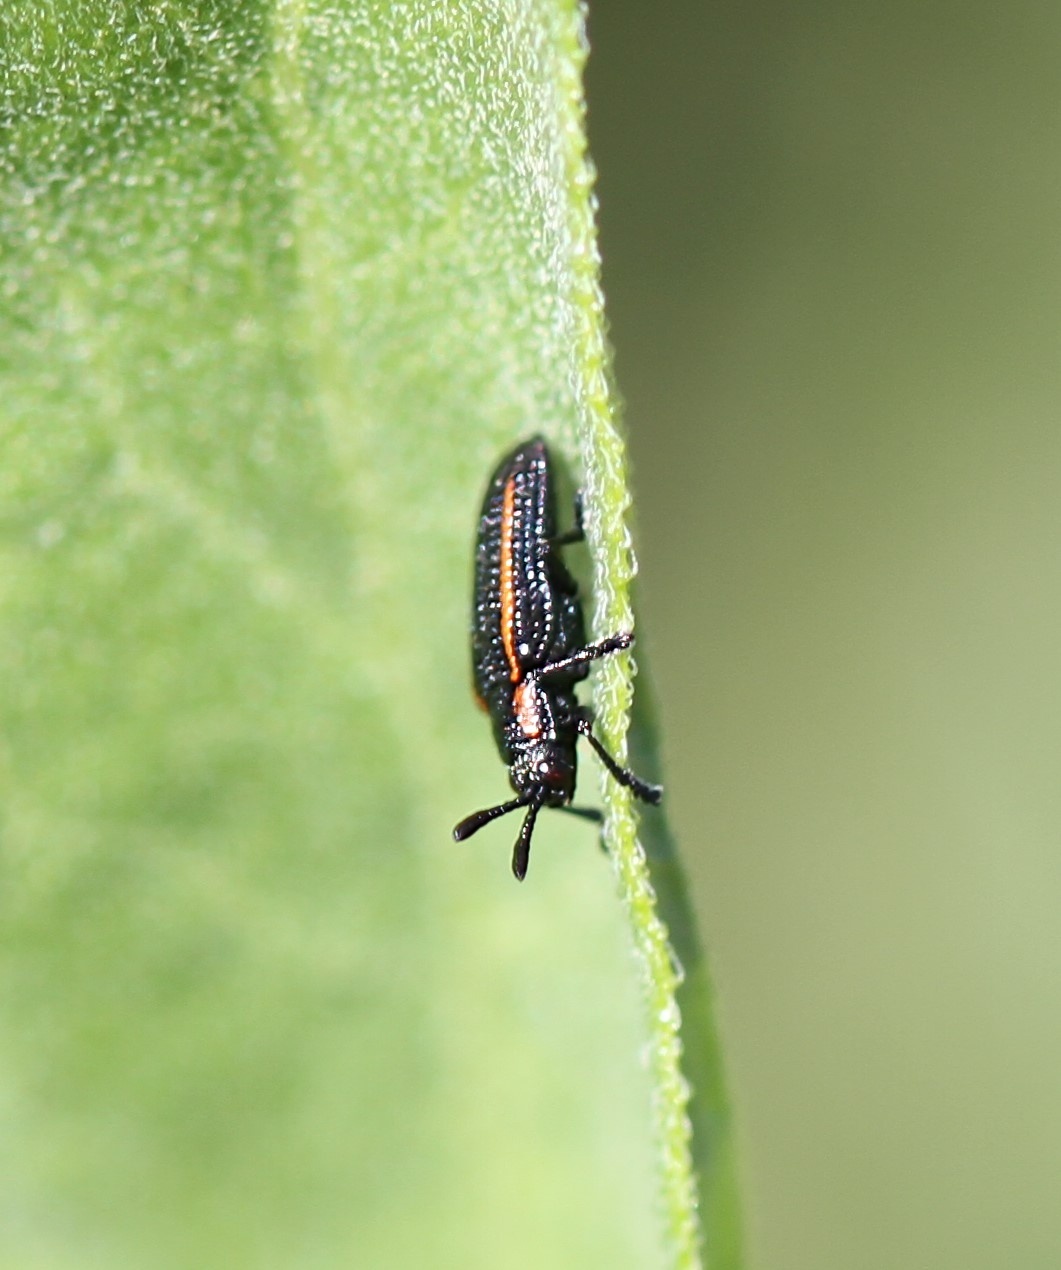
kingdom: Animalia
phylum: Arthropoda
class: Insecta
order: Coleoptera
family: Chrysomelidae
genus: Microrhopala
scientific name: Microrhopala rubrolineata
